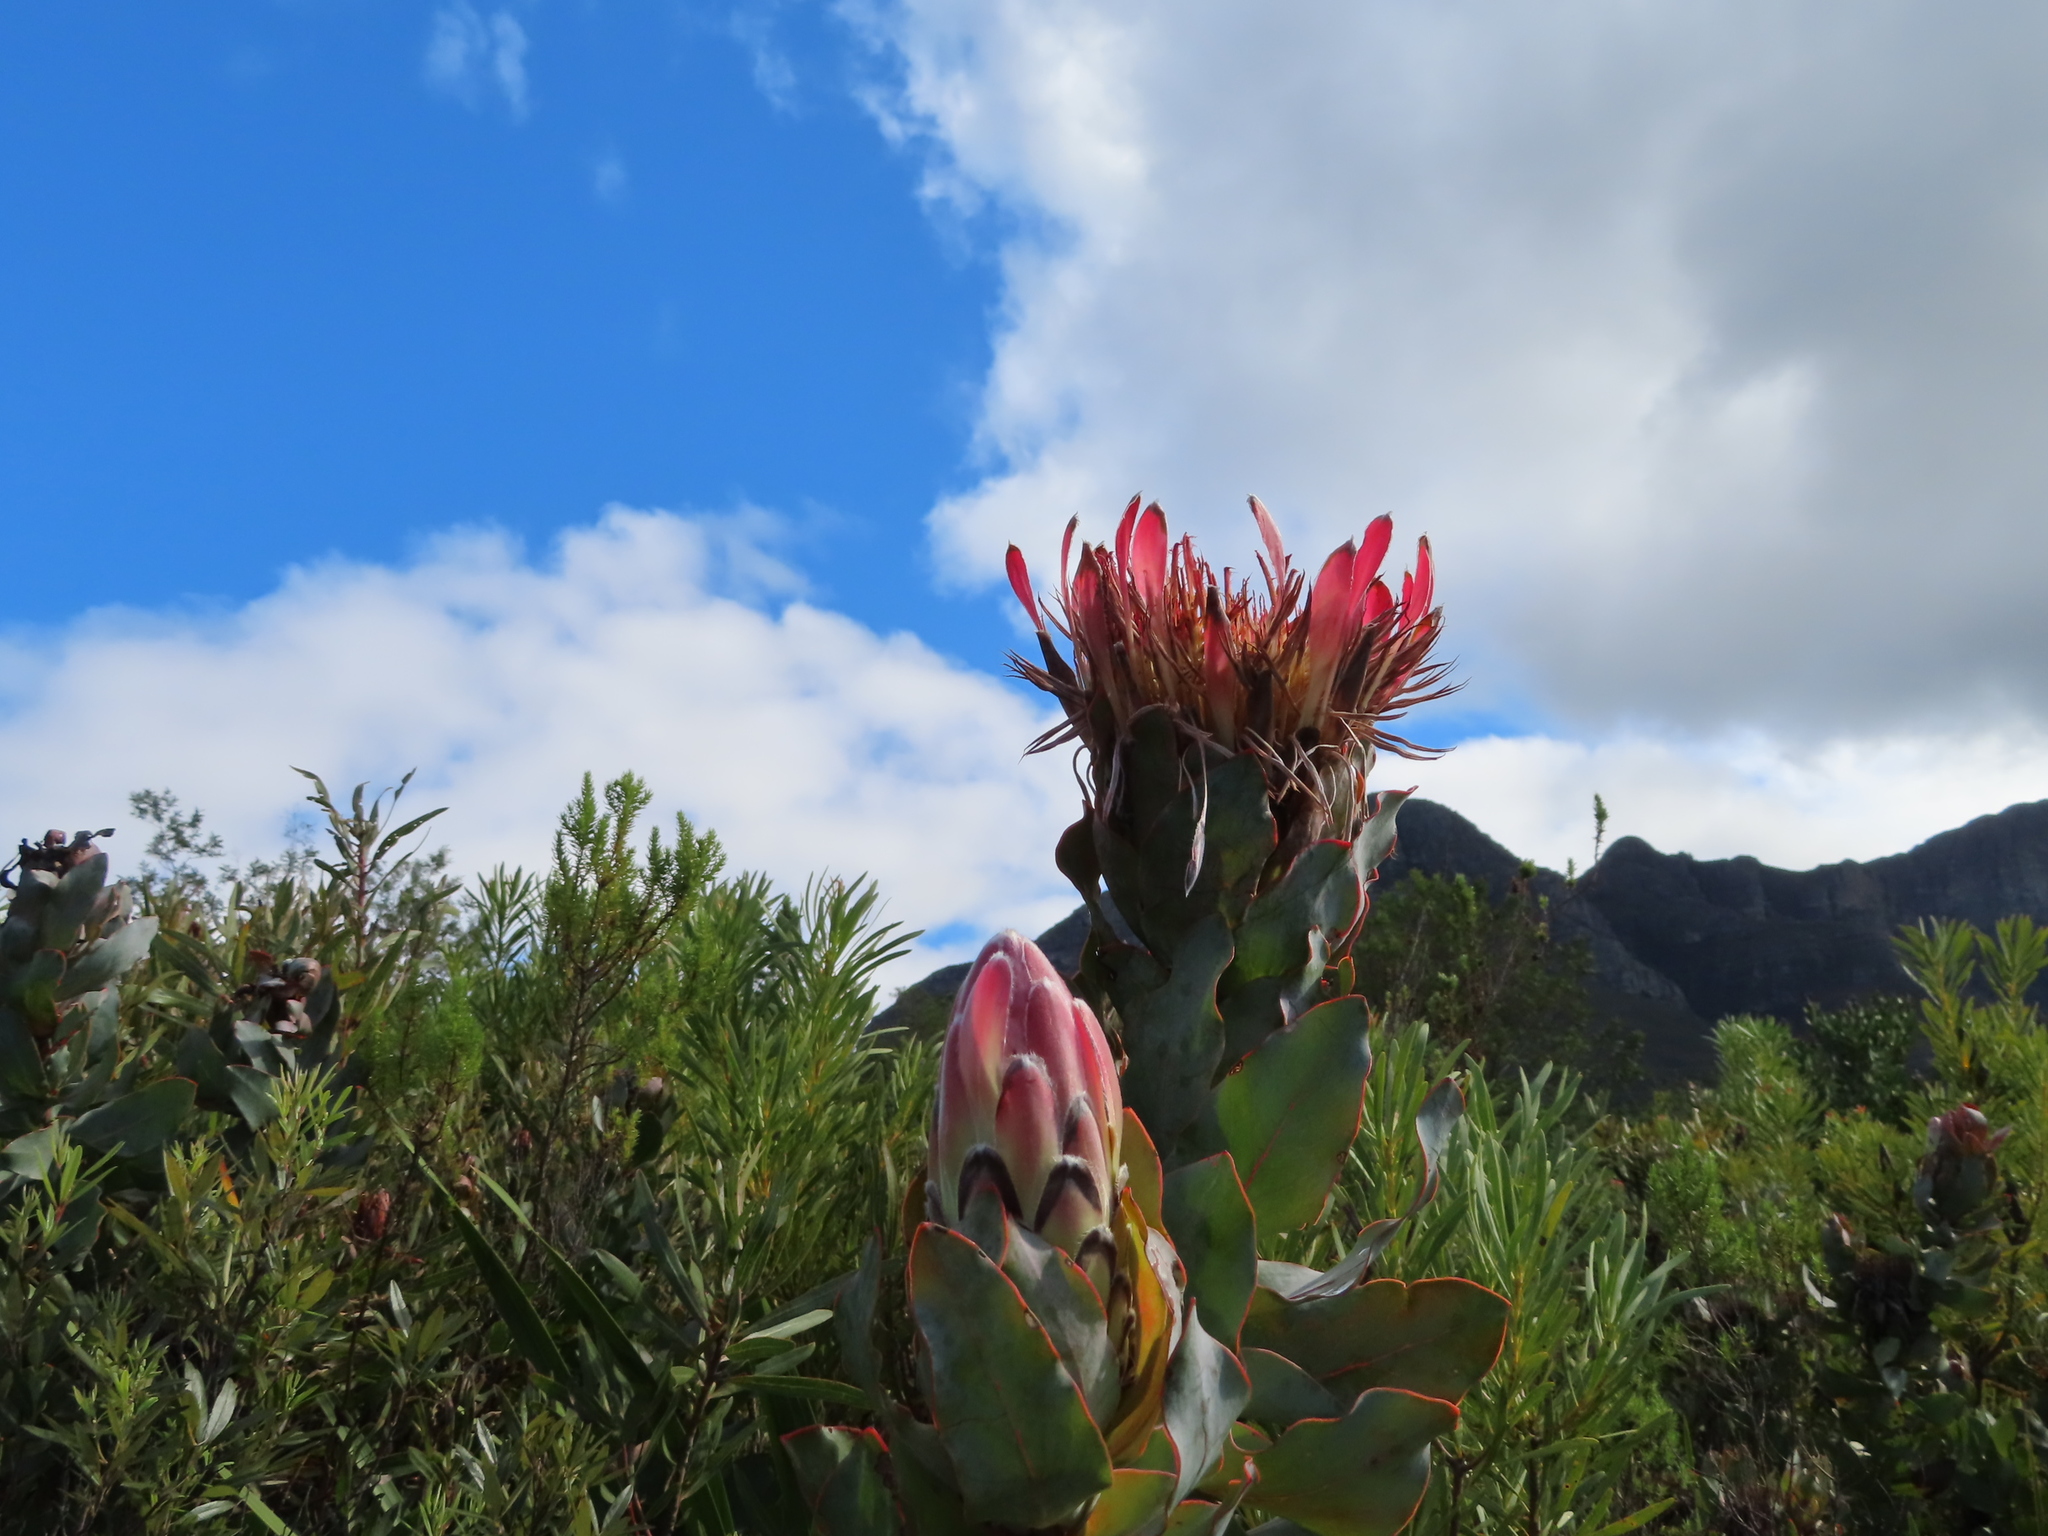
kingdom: Plantae
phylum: Tracheophyta
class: Magnoliopsida
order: Proteales
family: Proteaceae
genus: Protea
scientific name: Protea eximia
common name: Broad-leaved sugarbush
